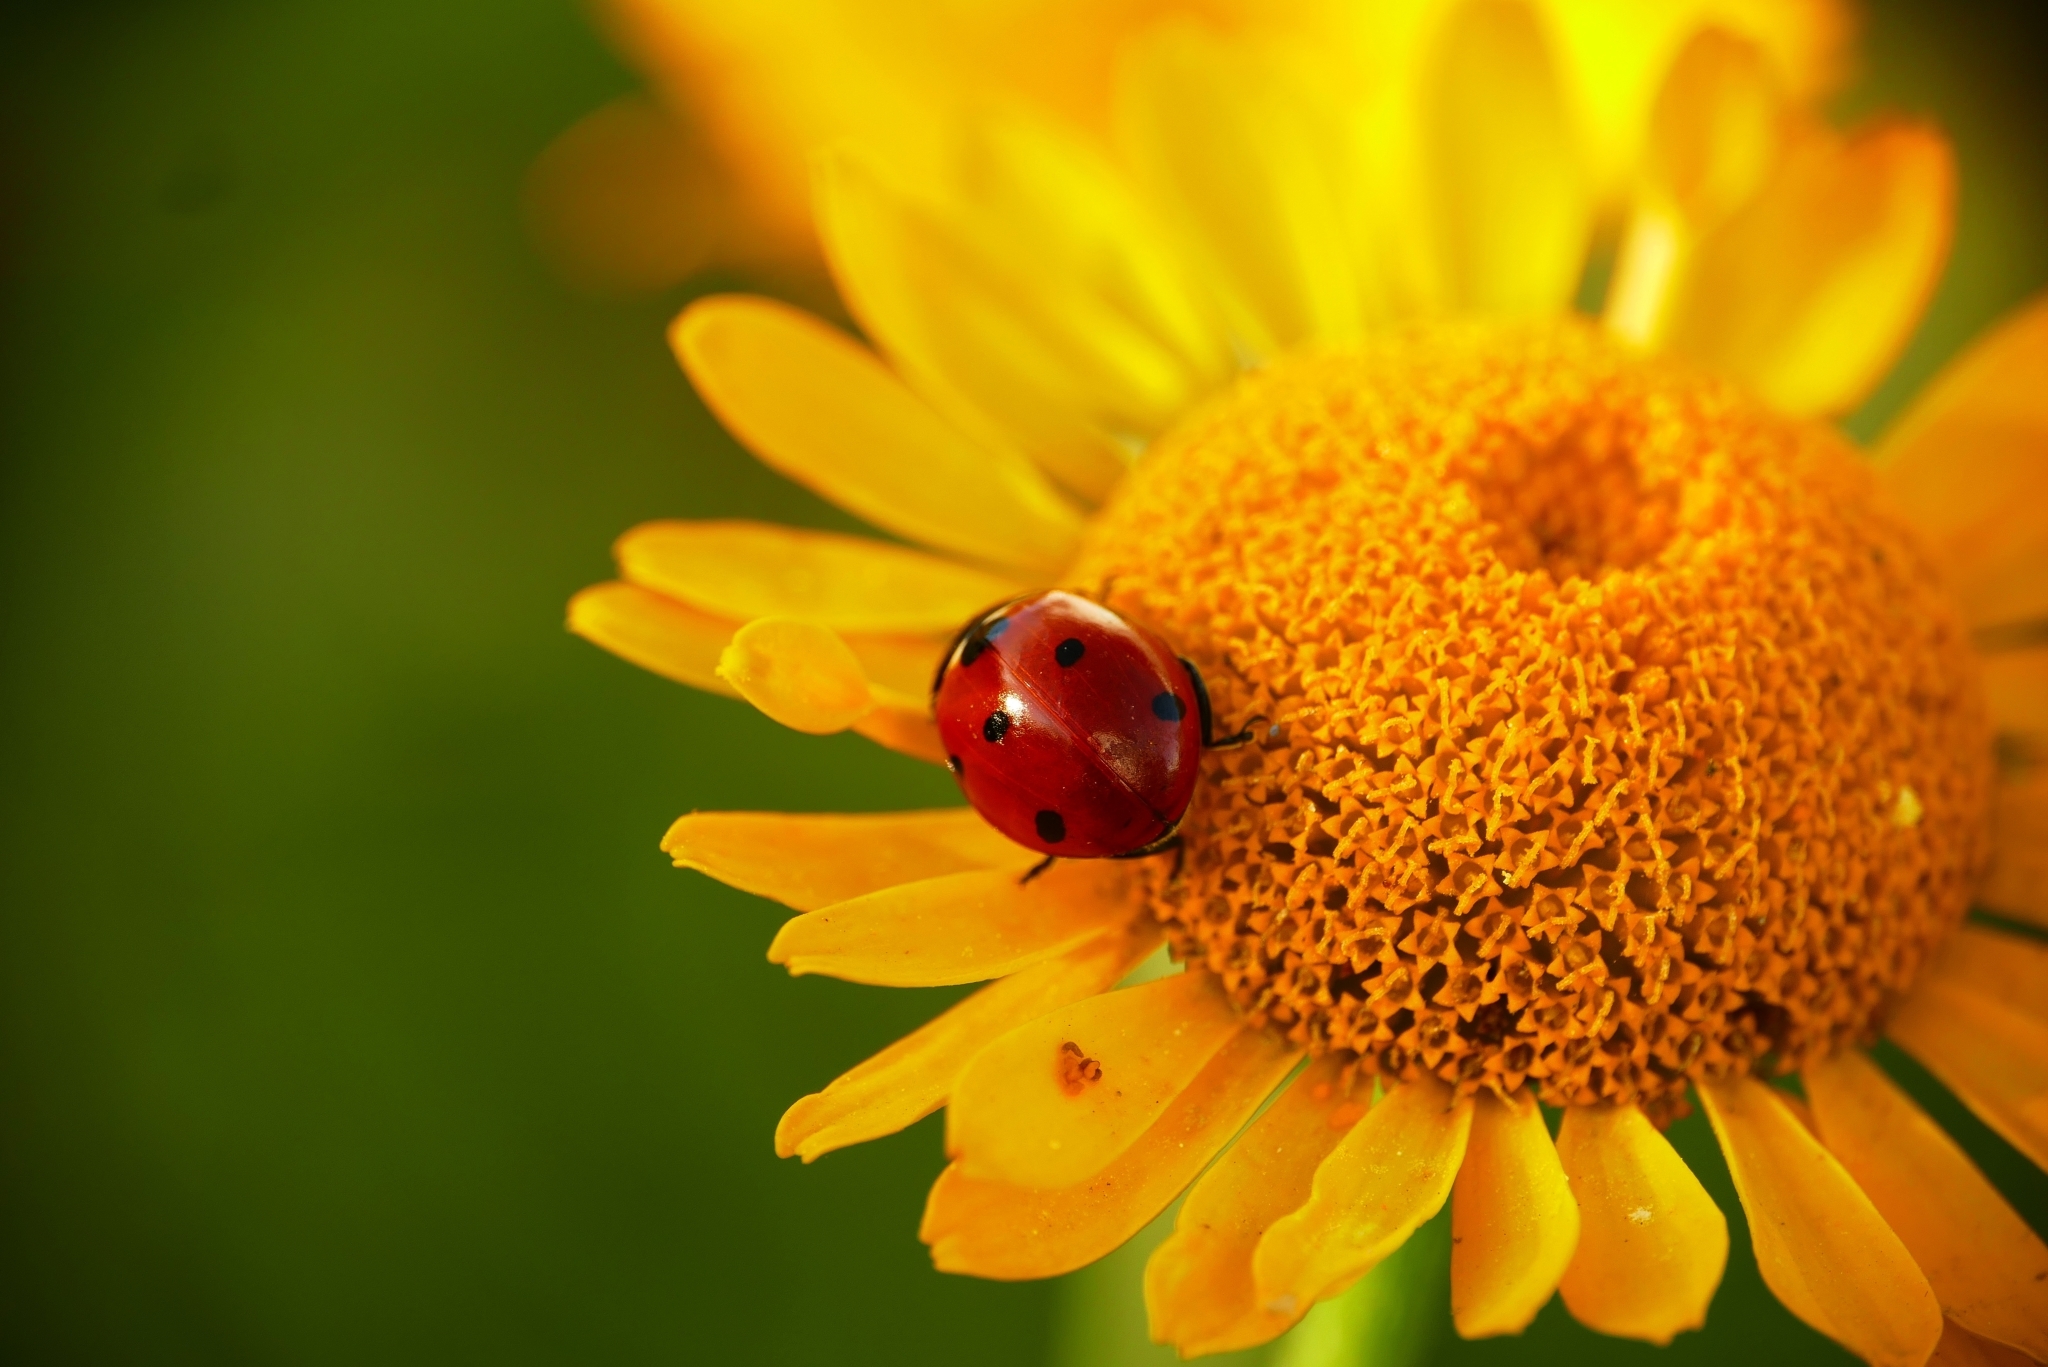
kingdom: Animalia
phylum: Arthropoda
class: Insecta
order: Coleoptera
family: Coccinellidae
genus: Coccinella
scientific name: Coccinella septempunctata
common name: Sevenspotted lady beetle
